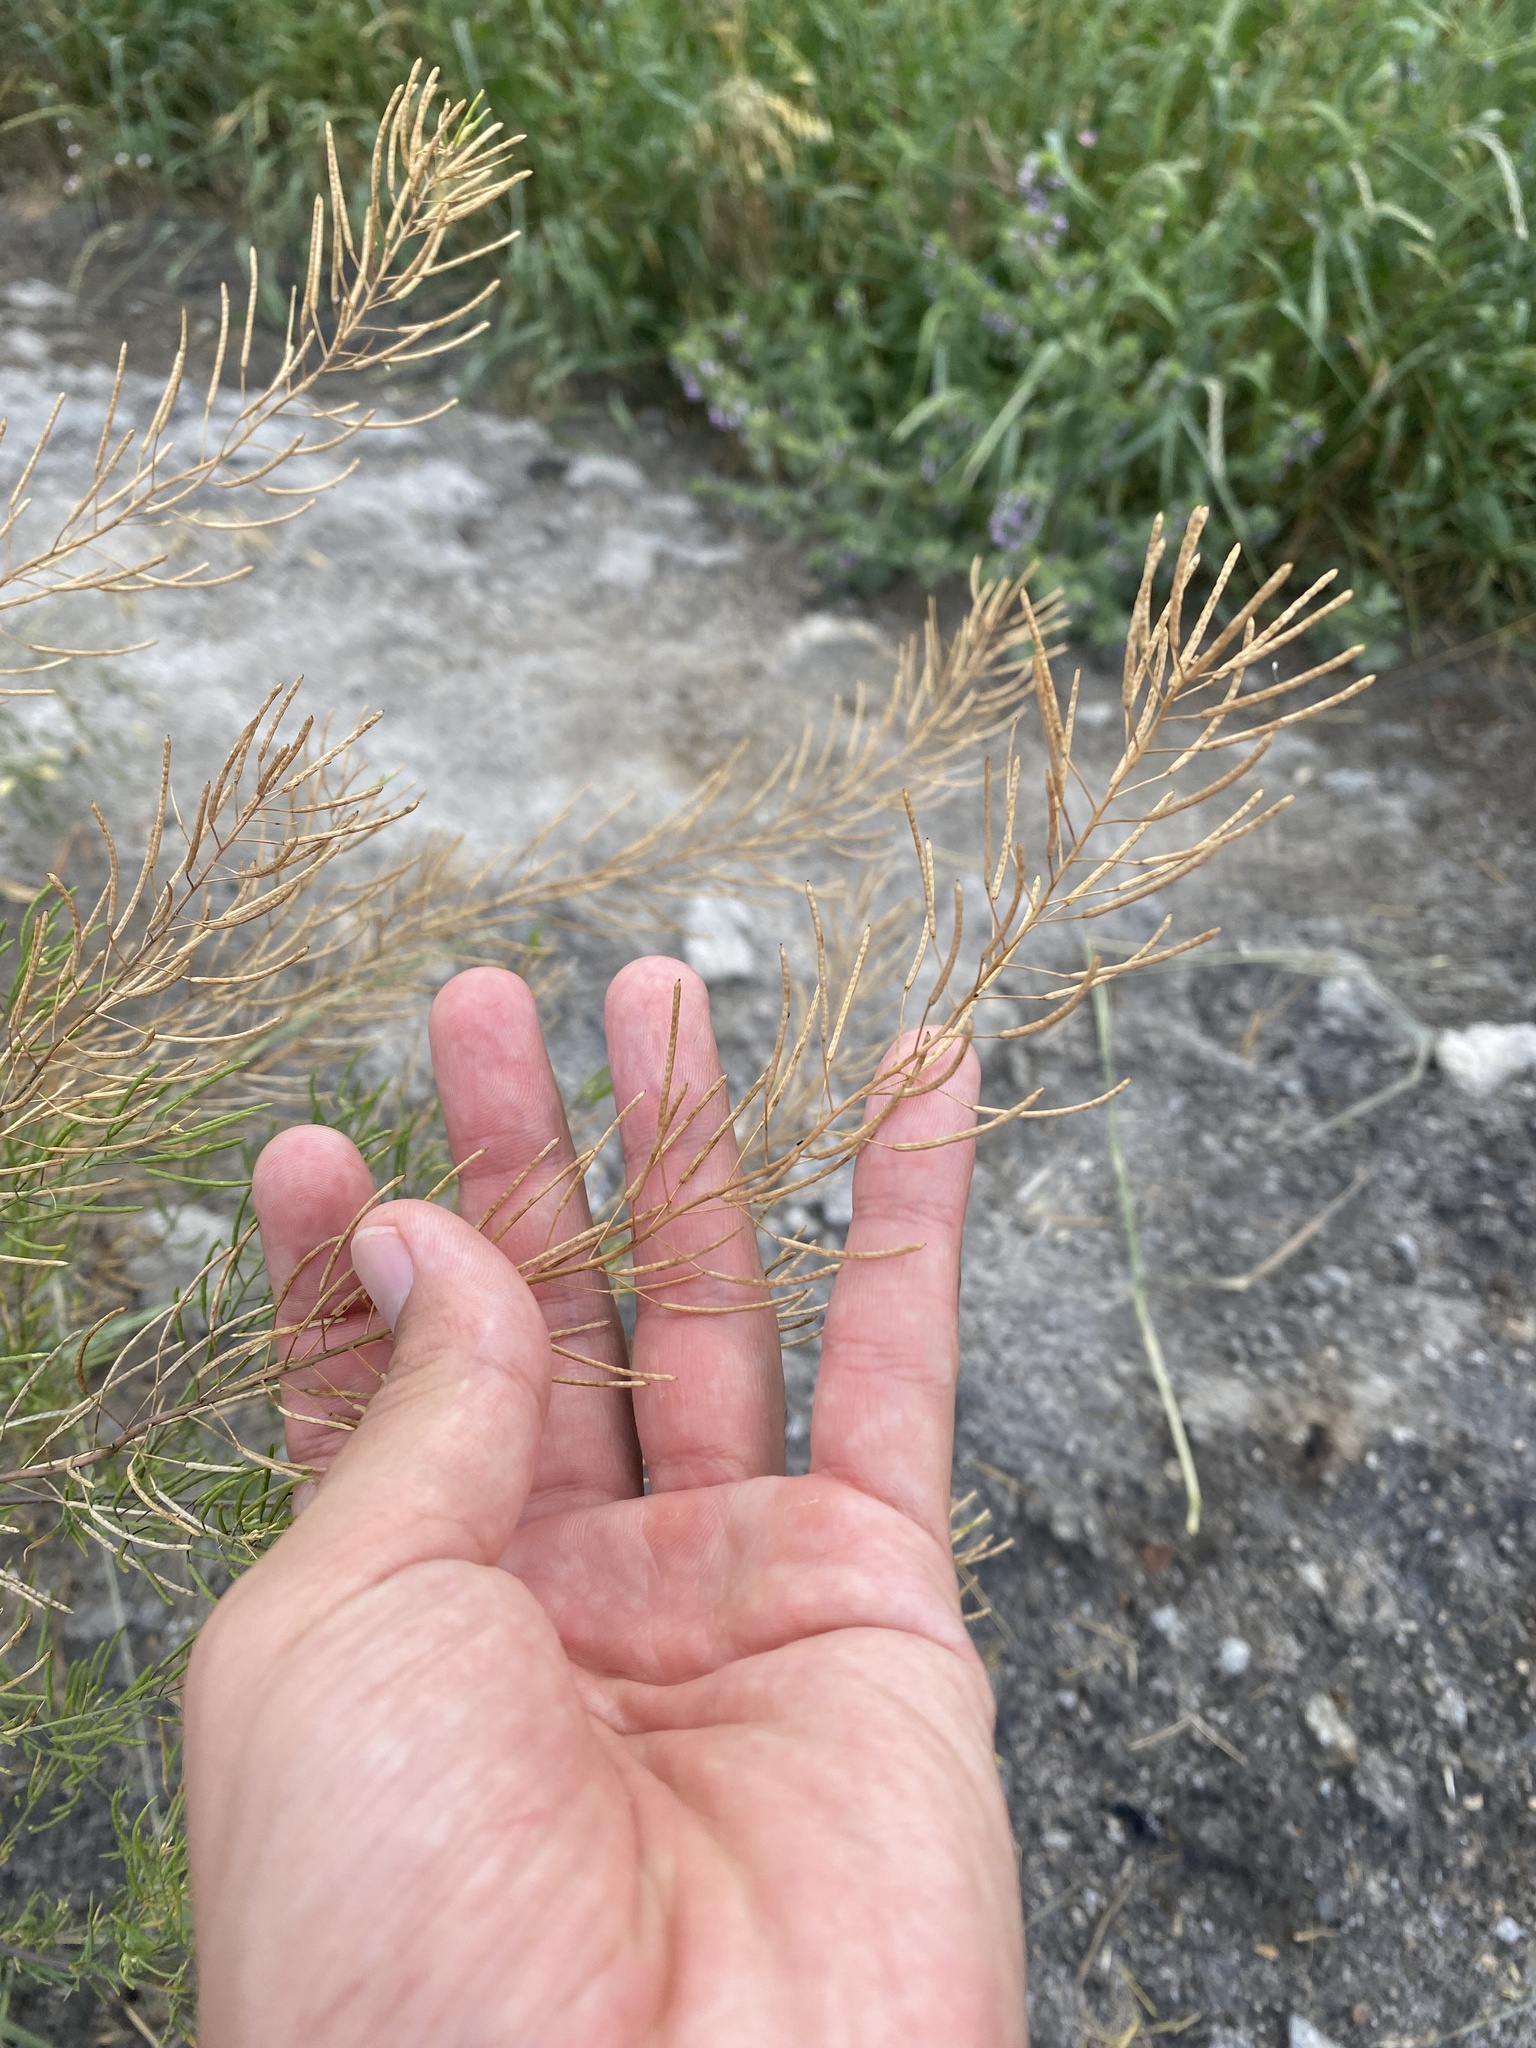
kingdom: Plantae
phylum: Tracheophyta
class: Magnoliopsida
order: Brassicales
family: Brassicaceae
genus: Descurainia
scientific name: Descurainia sophia
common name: Flixweed
